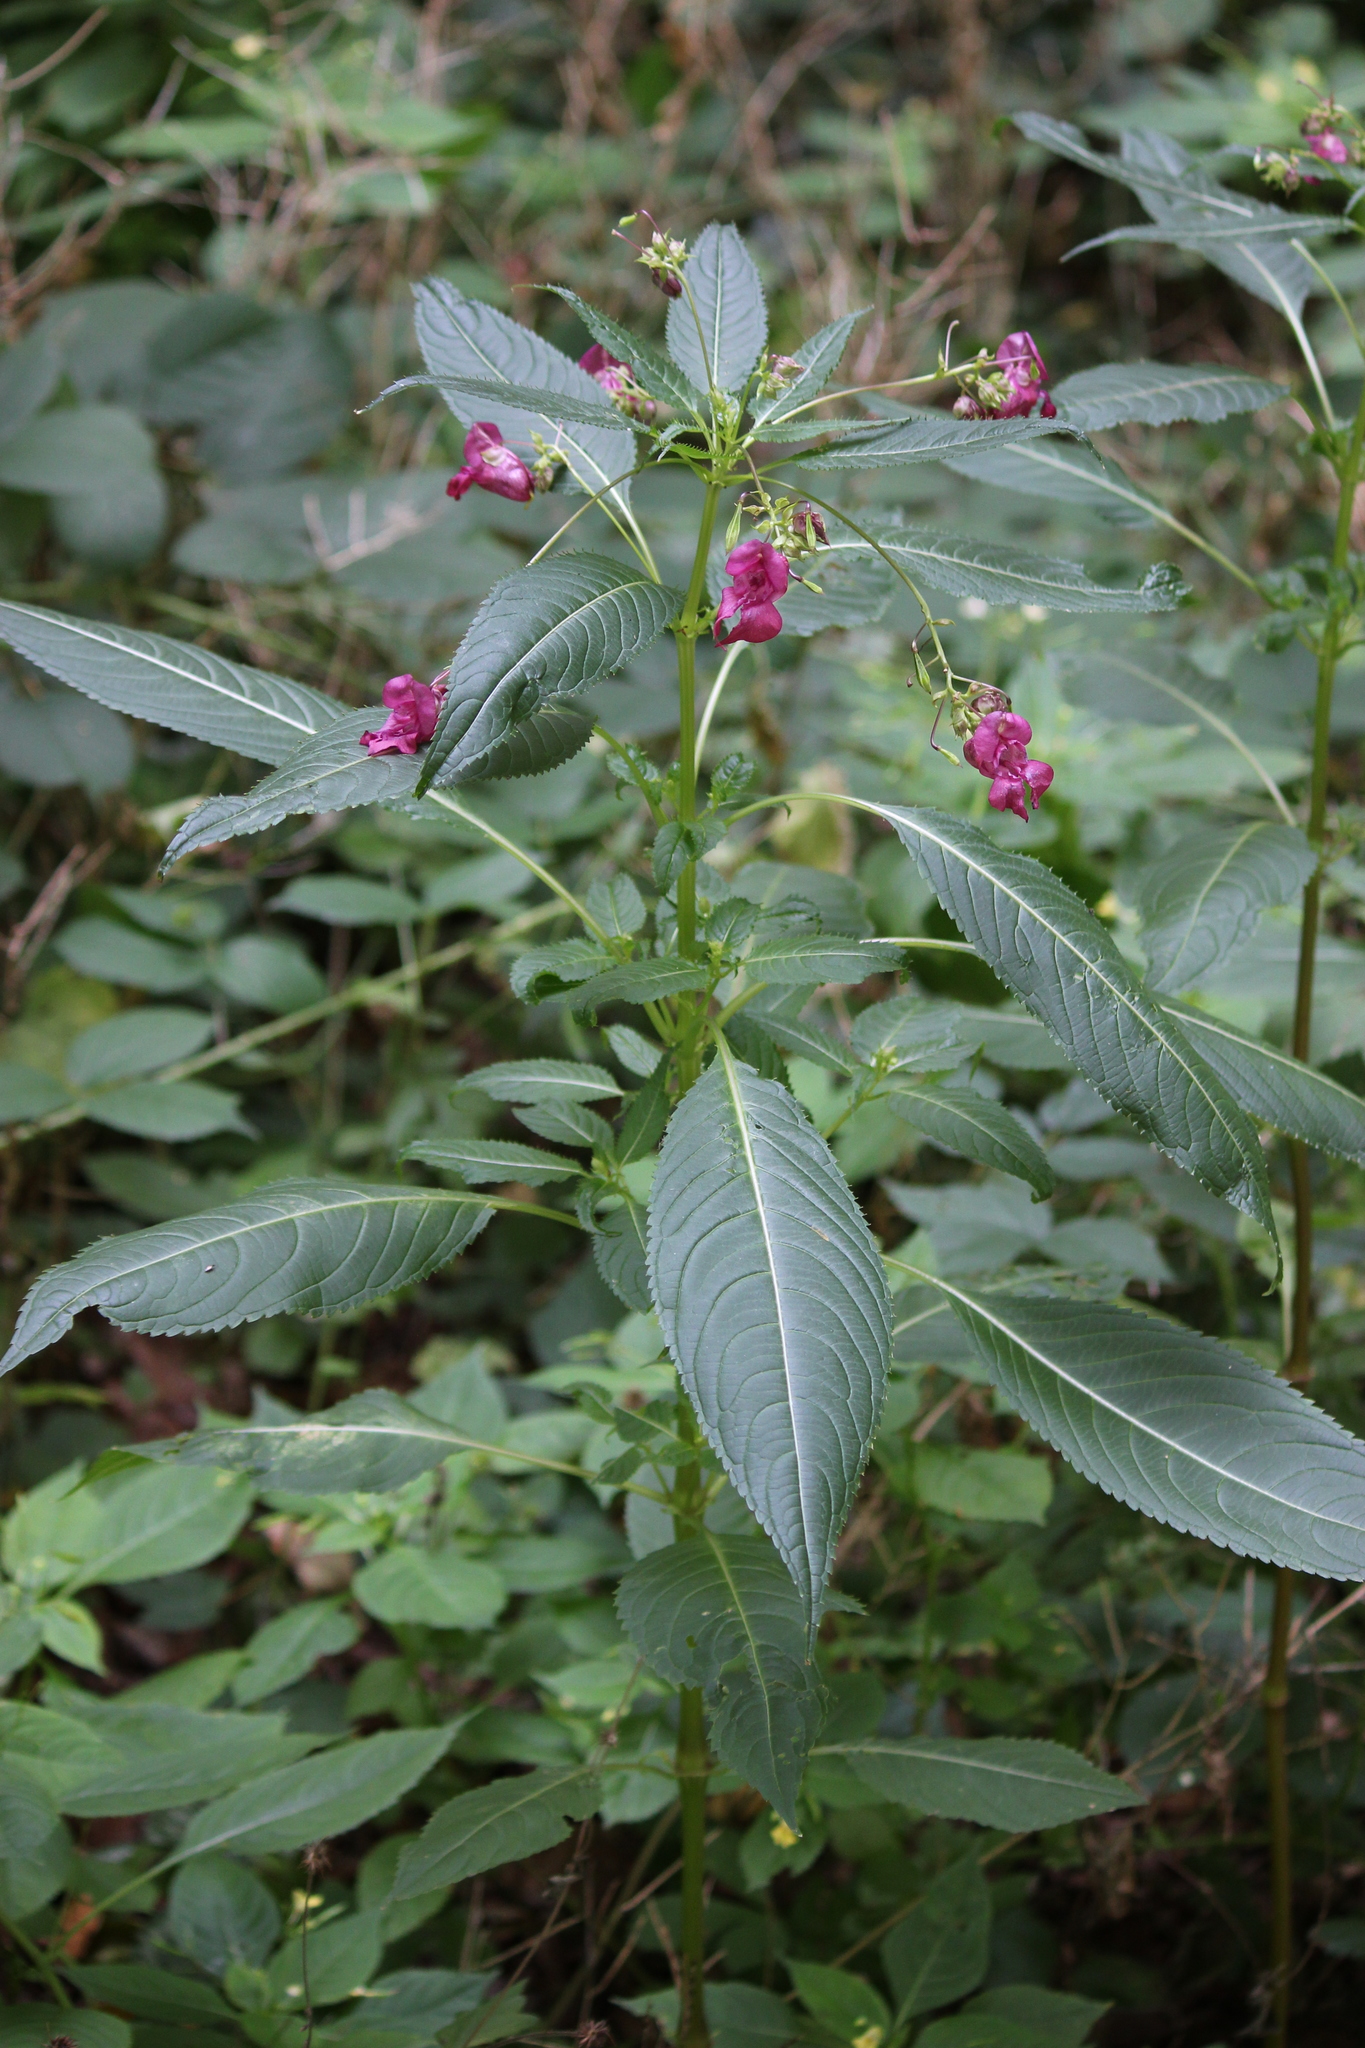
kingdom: Plantae
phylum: Tracheophyta
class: Magnoliopsida
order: Ericales
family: Balsaminaceae
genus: Impatiens
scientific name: Impatiens glandulifera
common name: Himalayan balsam
